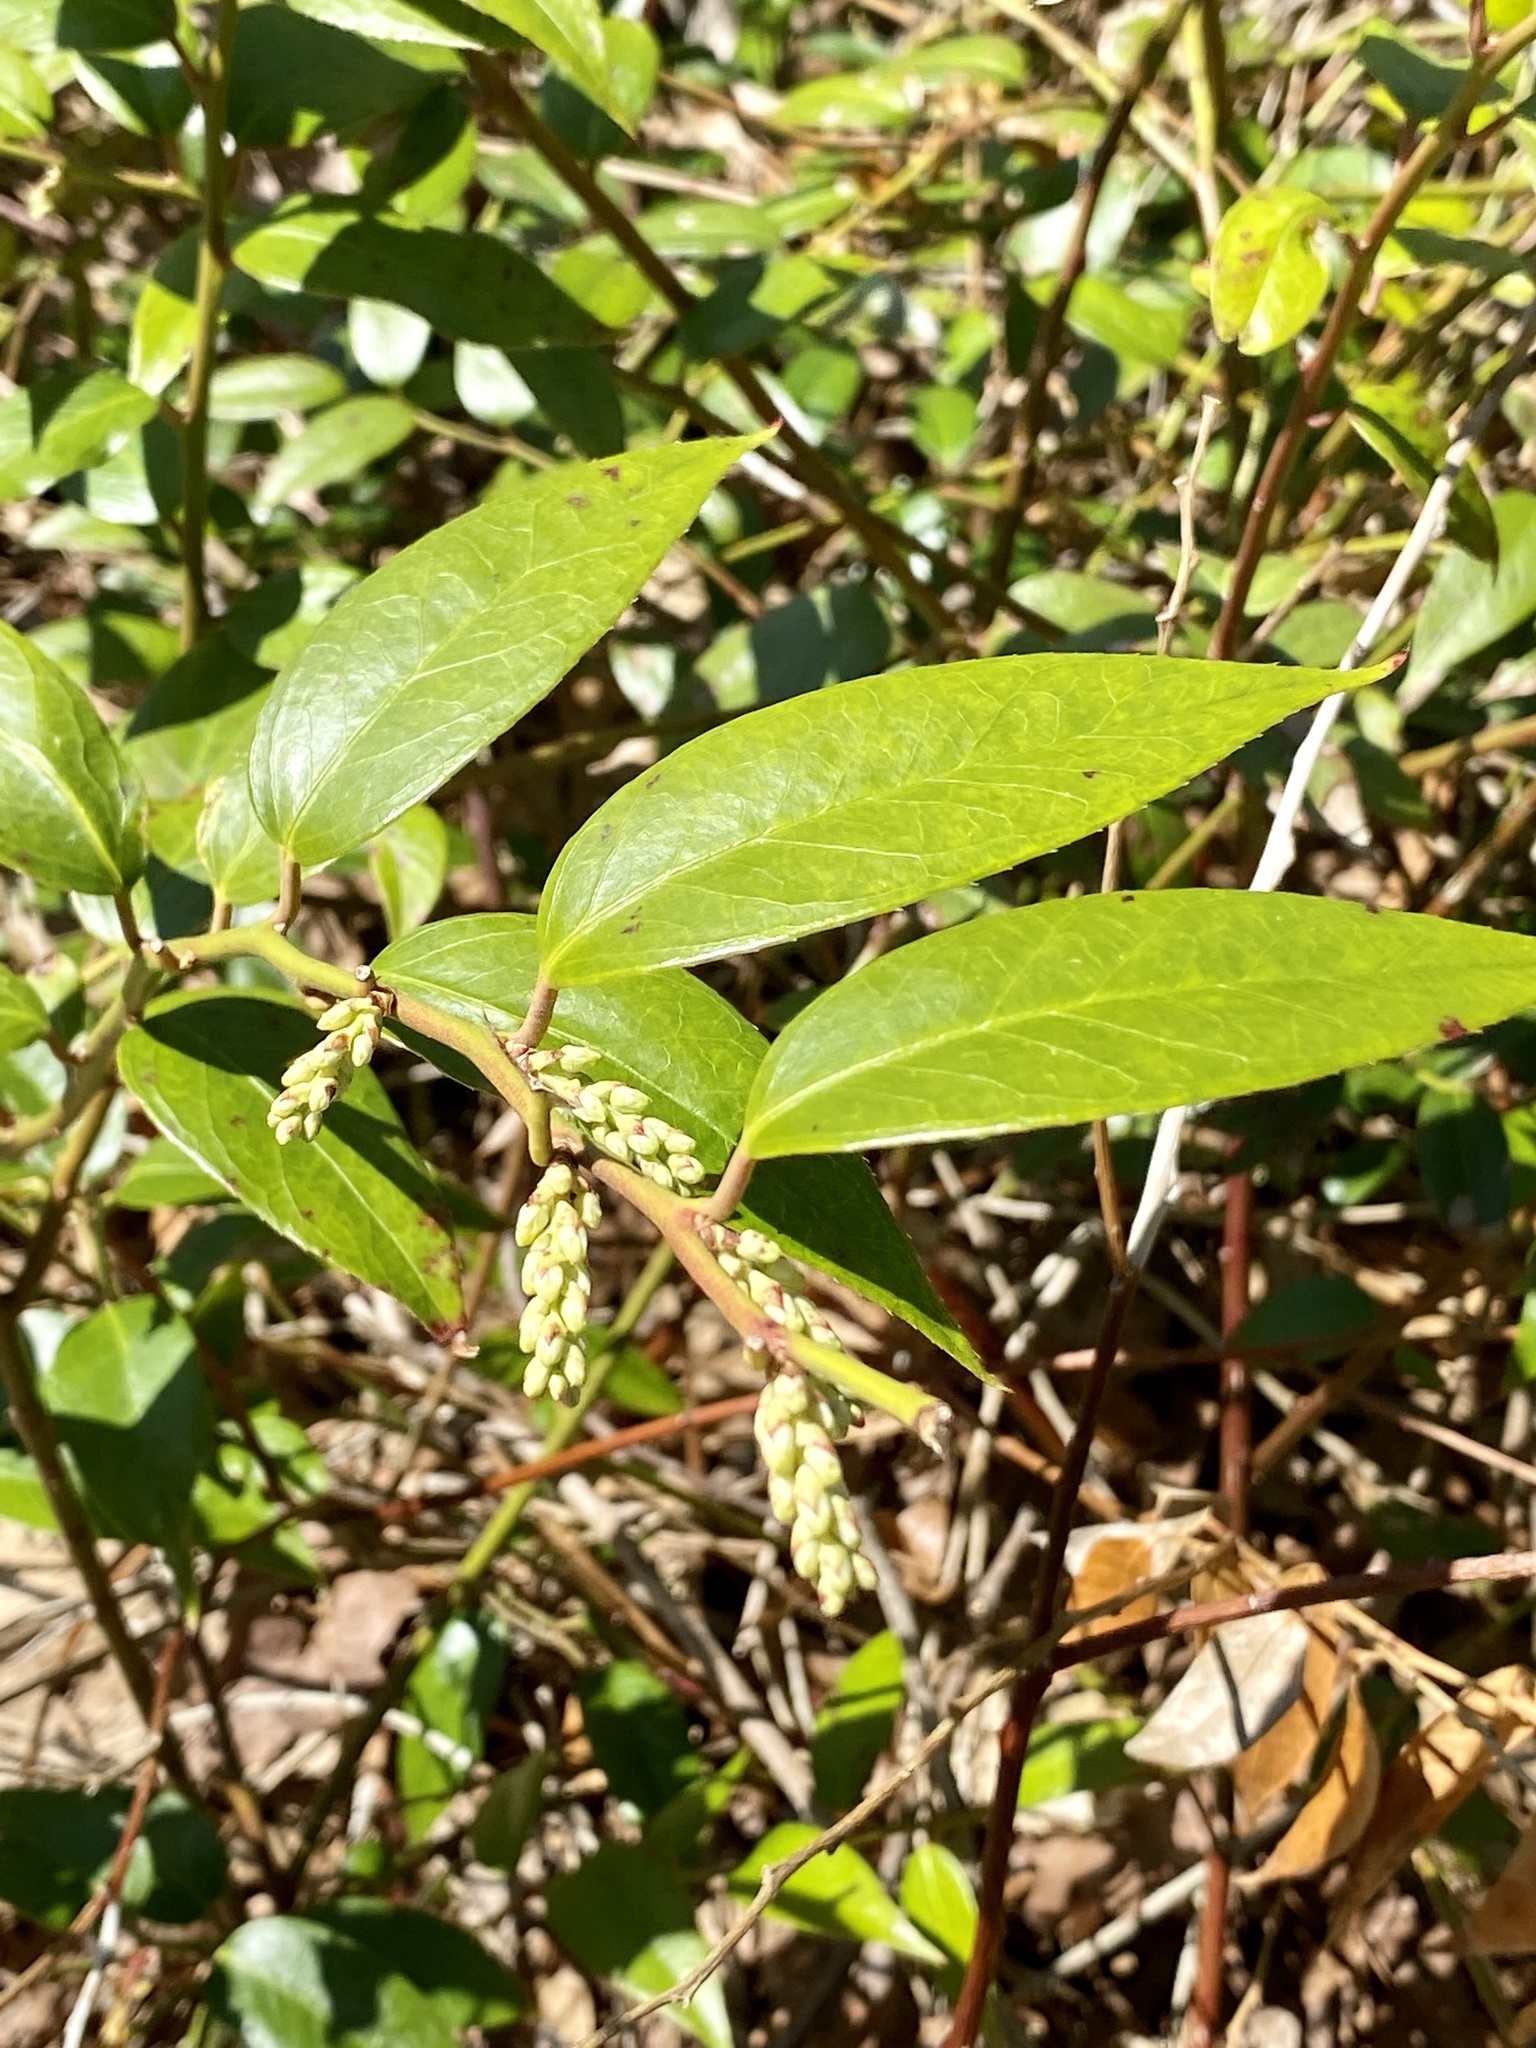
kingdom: Plantae
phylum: Tracheophyta
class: Magnoliopsida
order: Ericales
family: Ericaceae
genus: Leucothoe
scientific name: Leucothoe fontanesiana
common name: Fetterbush
